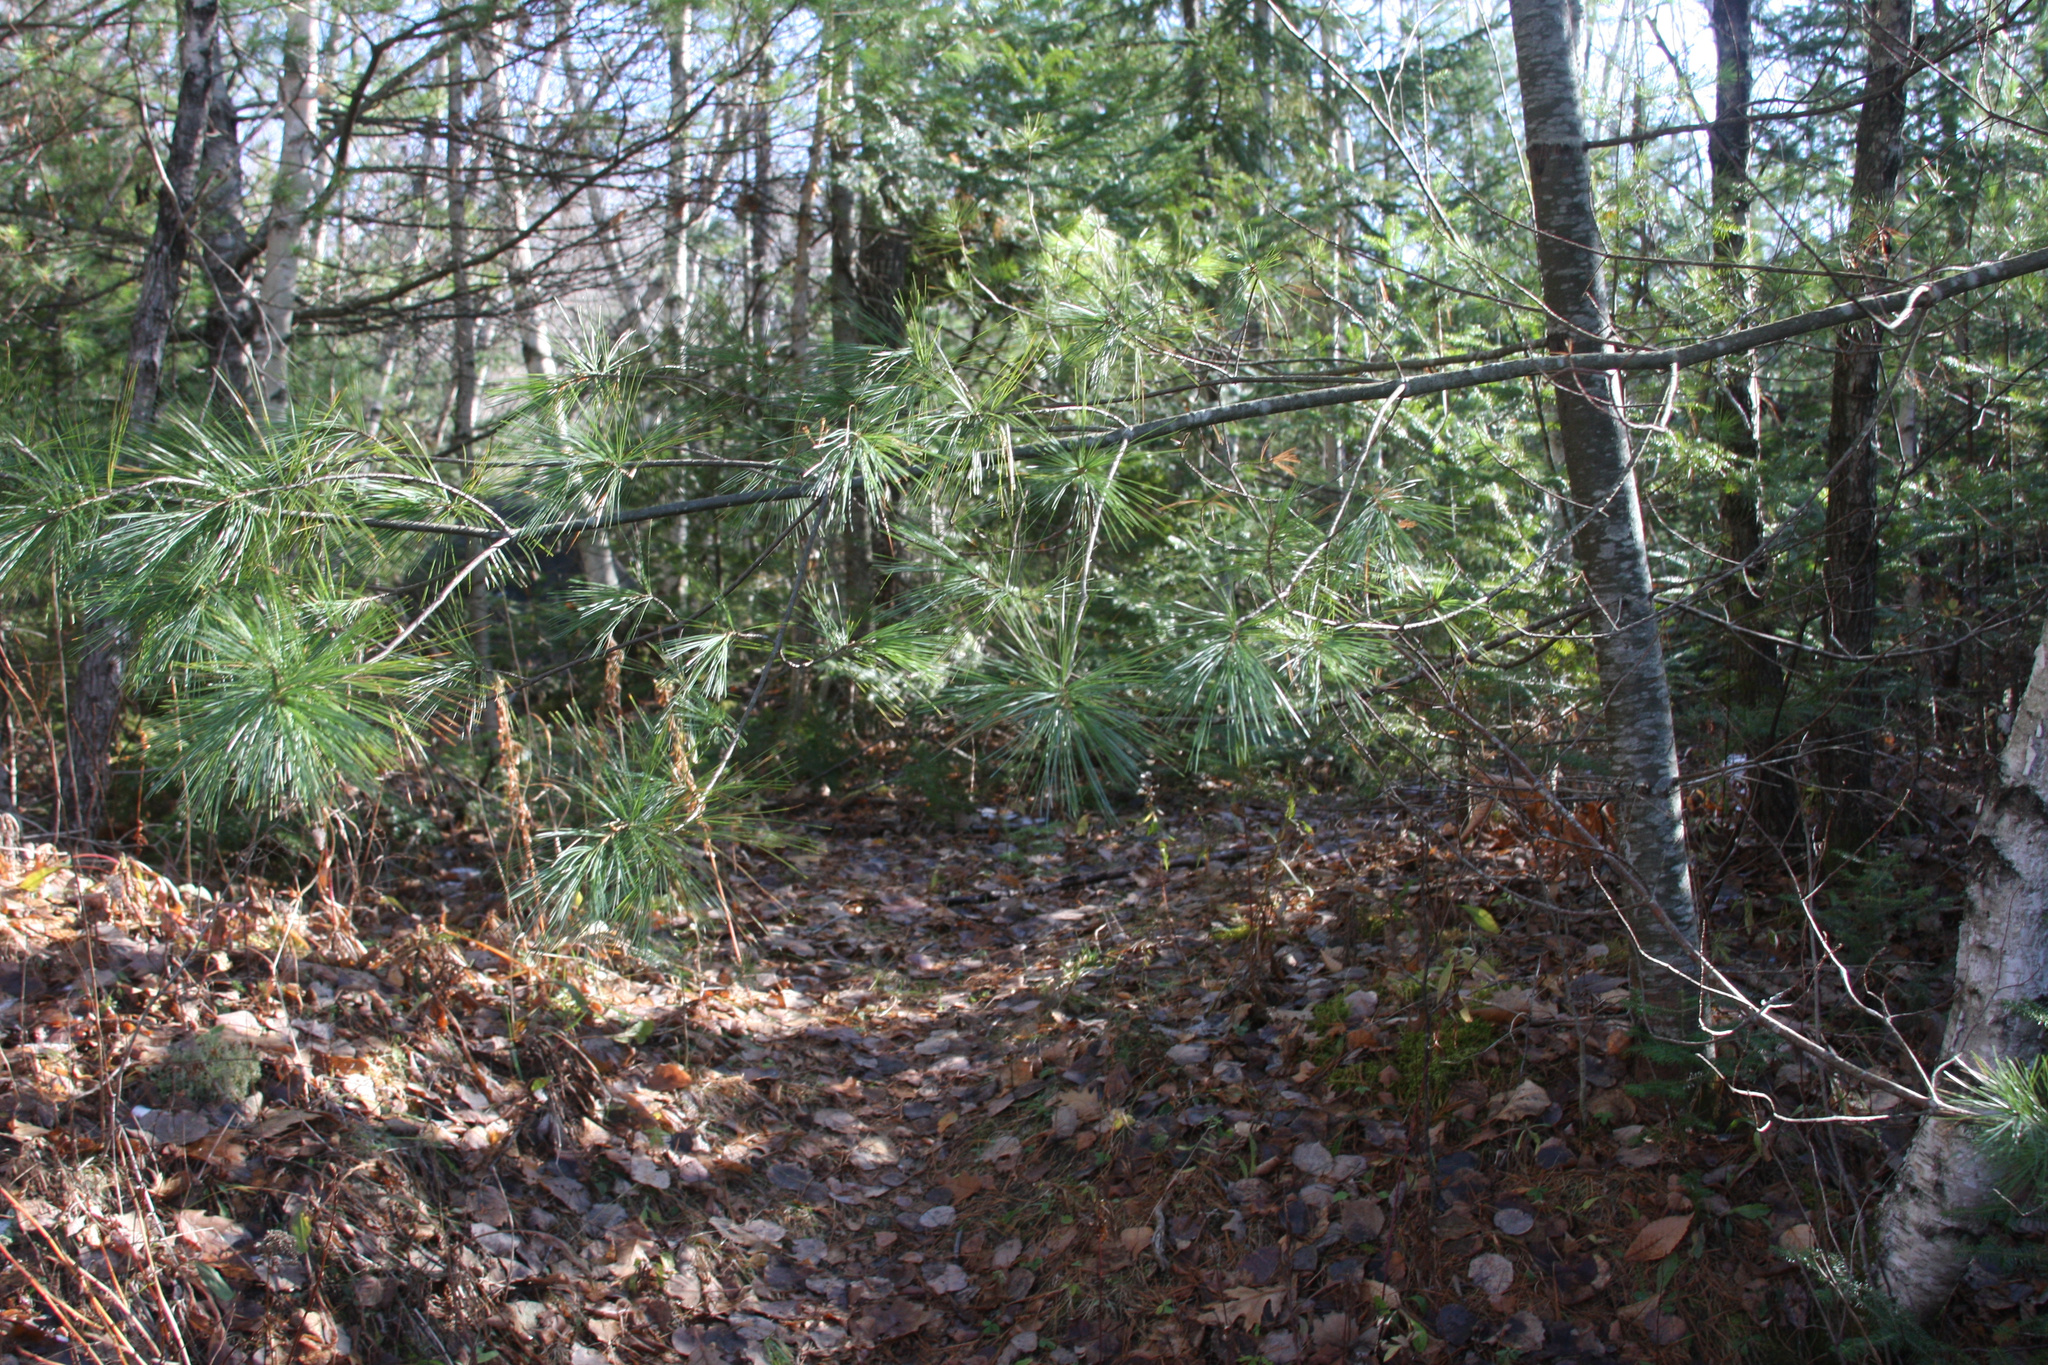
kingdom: Plantae
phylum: Tracheophyta
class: Pinopsida
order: Pinales
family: Pinaceae
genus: Pinus
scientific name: Pinus strobus
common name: Weymouth pine
